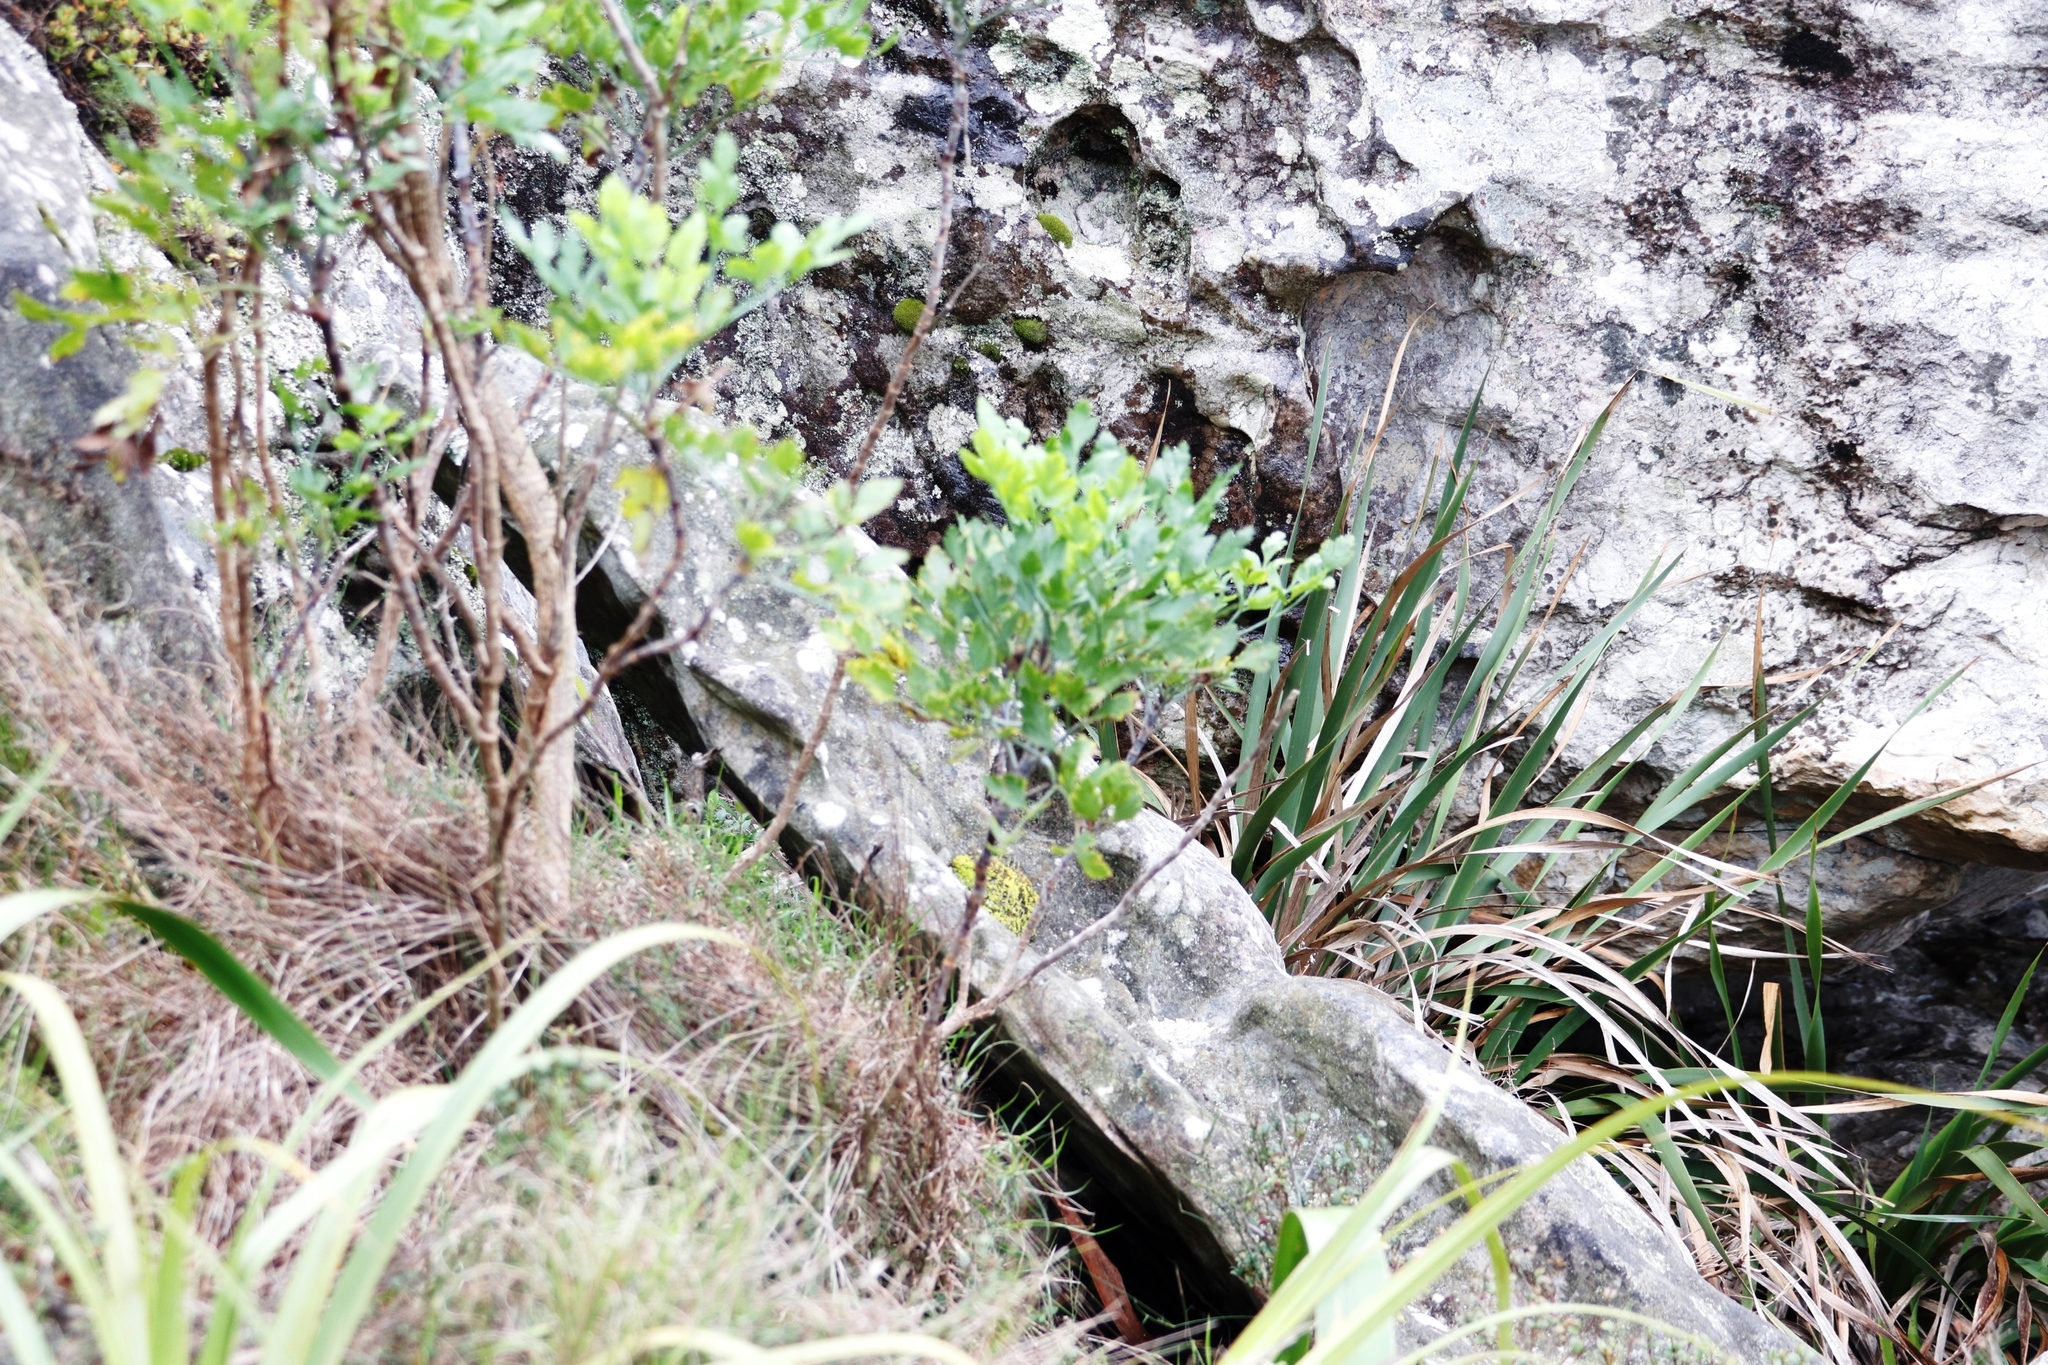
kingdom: Plantae
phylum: Tracheophyta
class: Magnoliopsida
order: Apiales
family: Apiaceae
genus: Notobubon
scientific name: Notobubon galbanum
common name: Blisterbush
